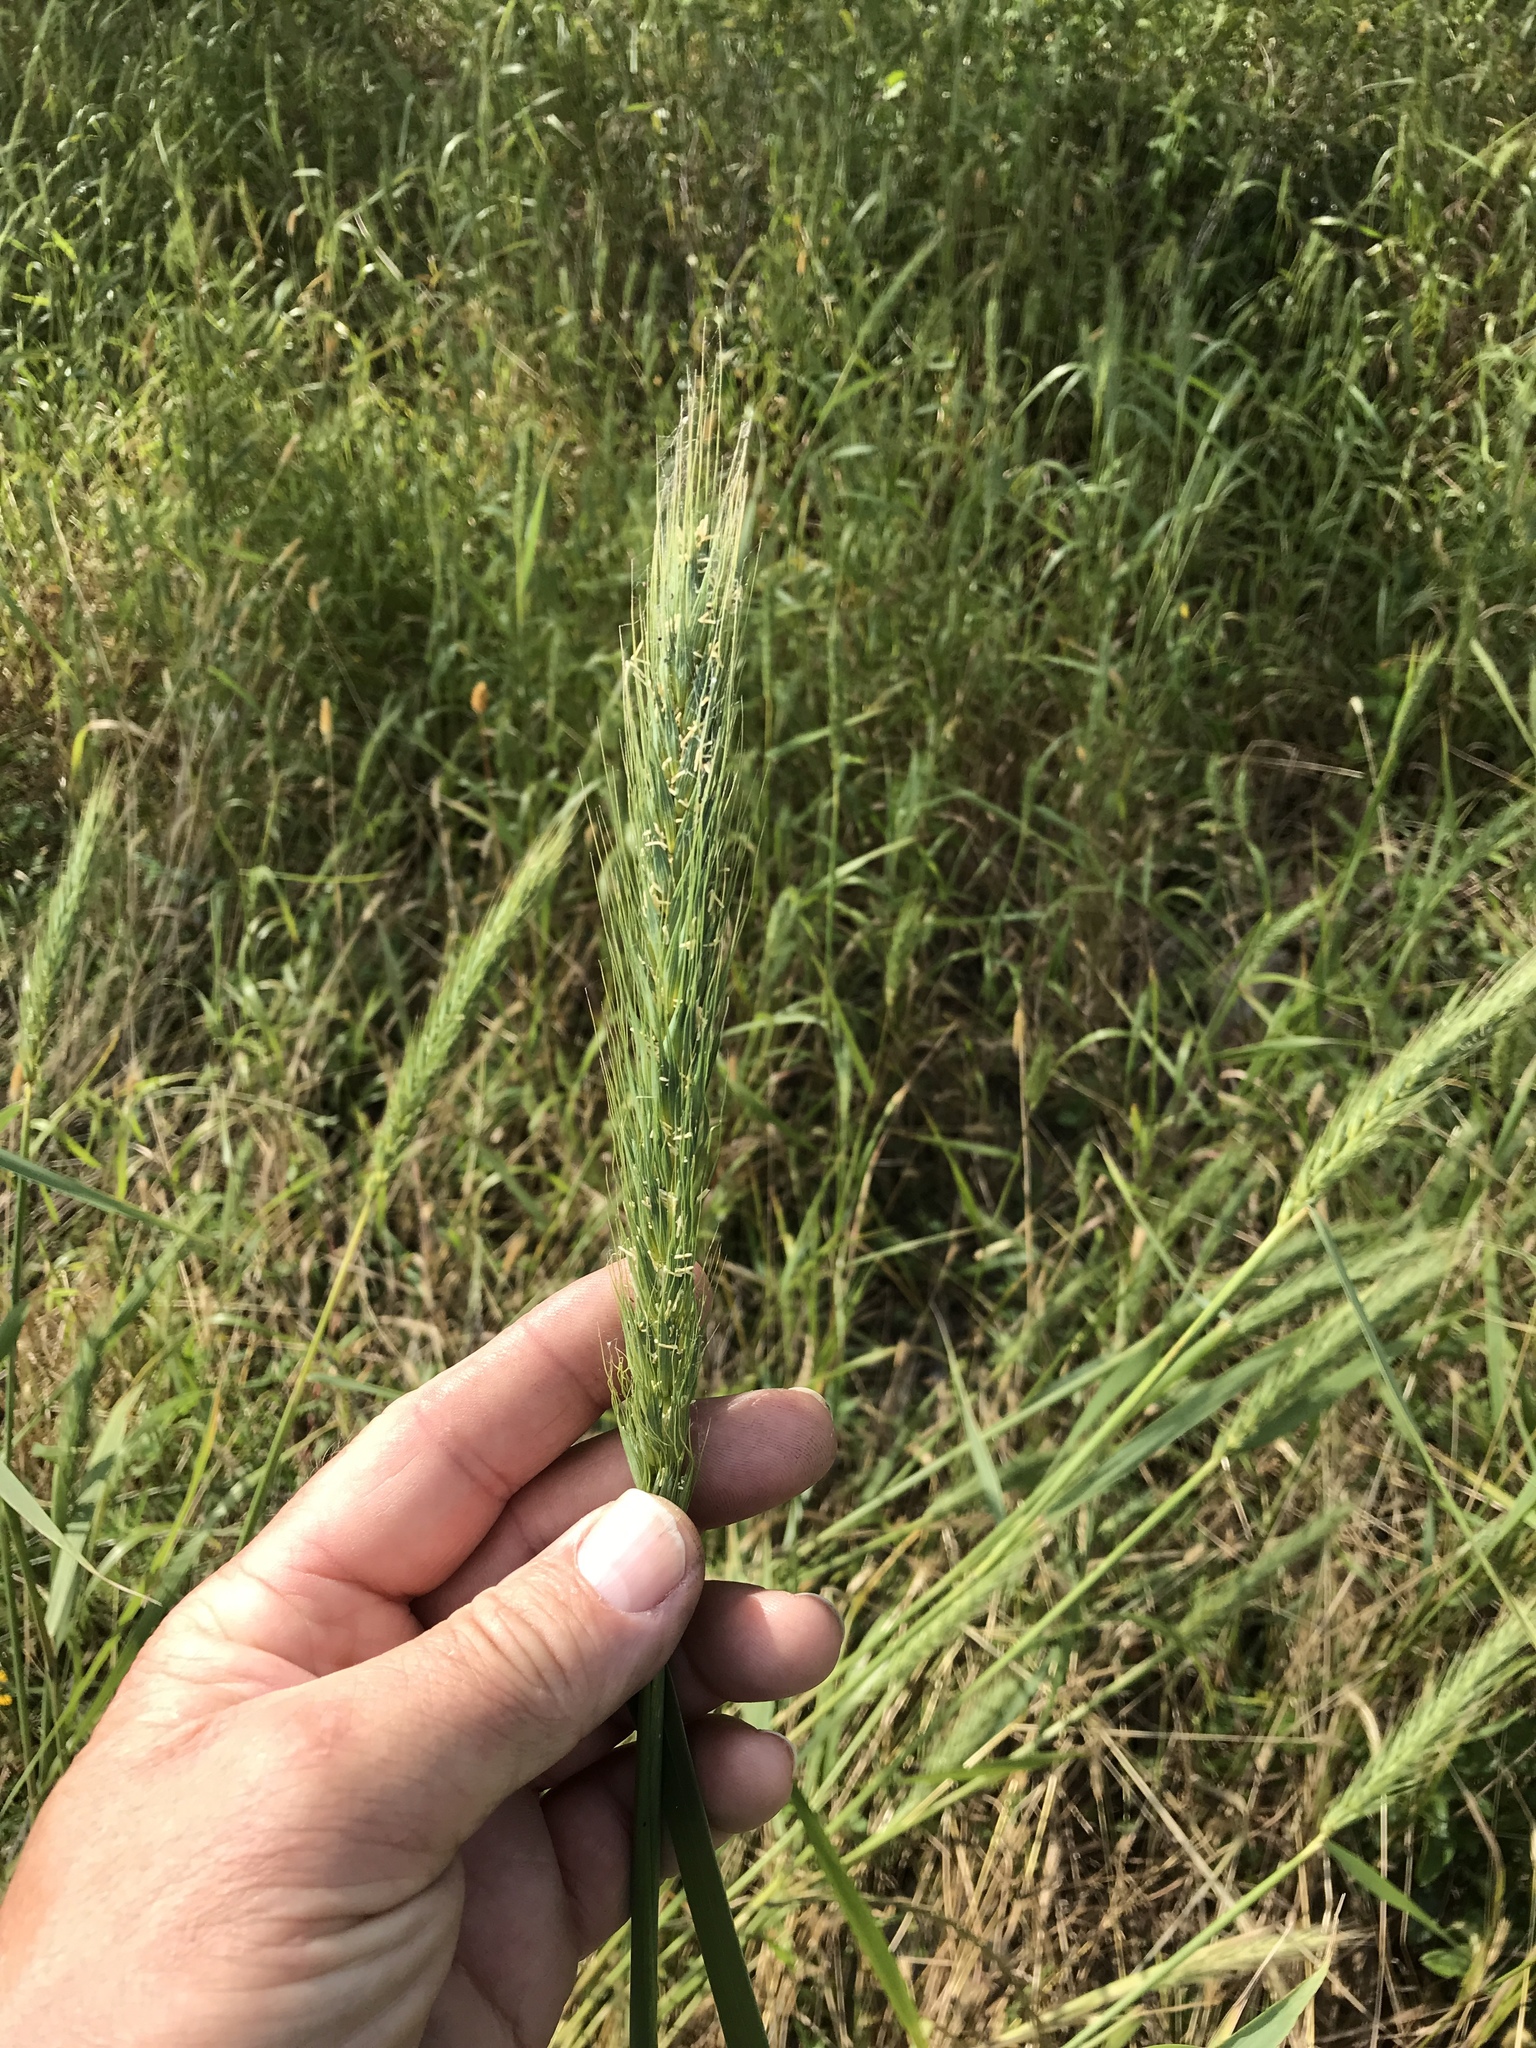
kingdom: Plantae
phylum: Tracheophyta
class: Liliopsida
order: Poales
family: Poaceae
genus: Elymus
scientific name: Elymus virginicus
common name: Common eastern wildrye
